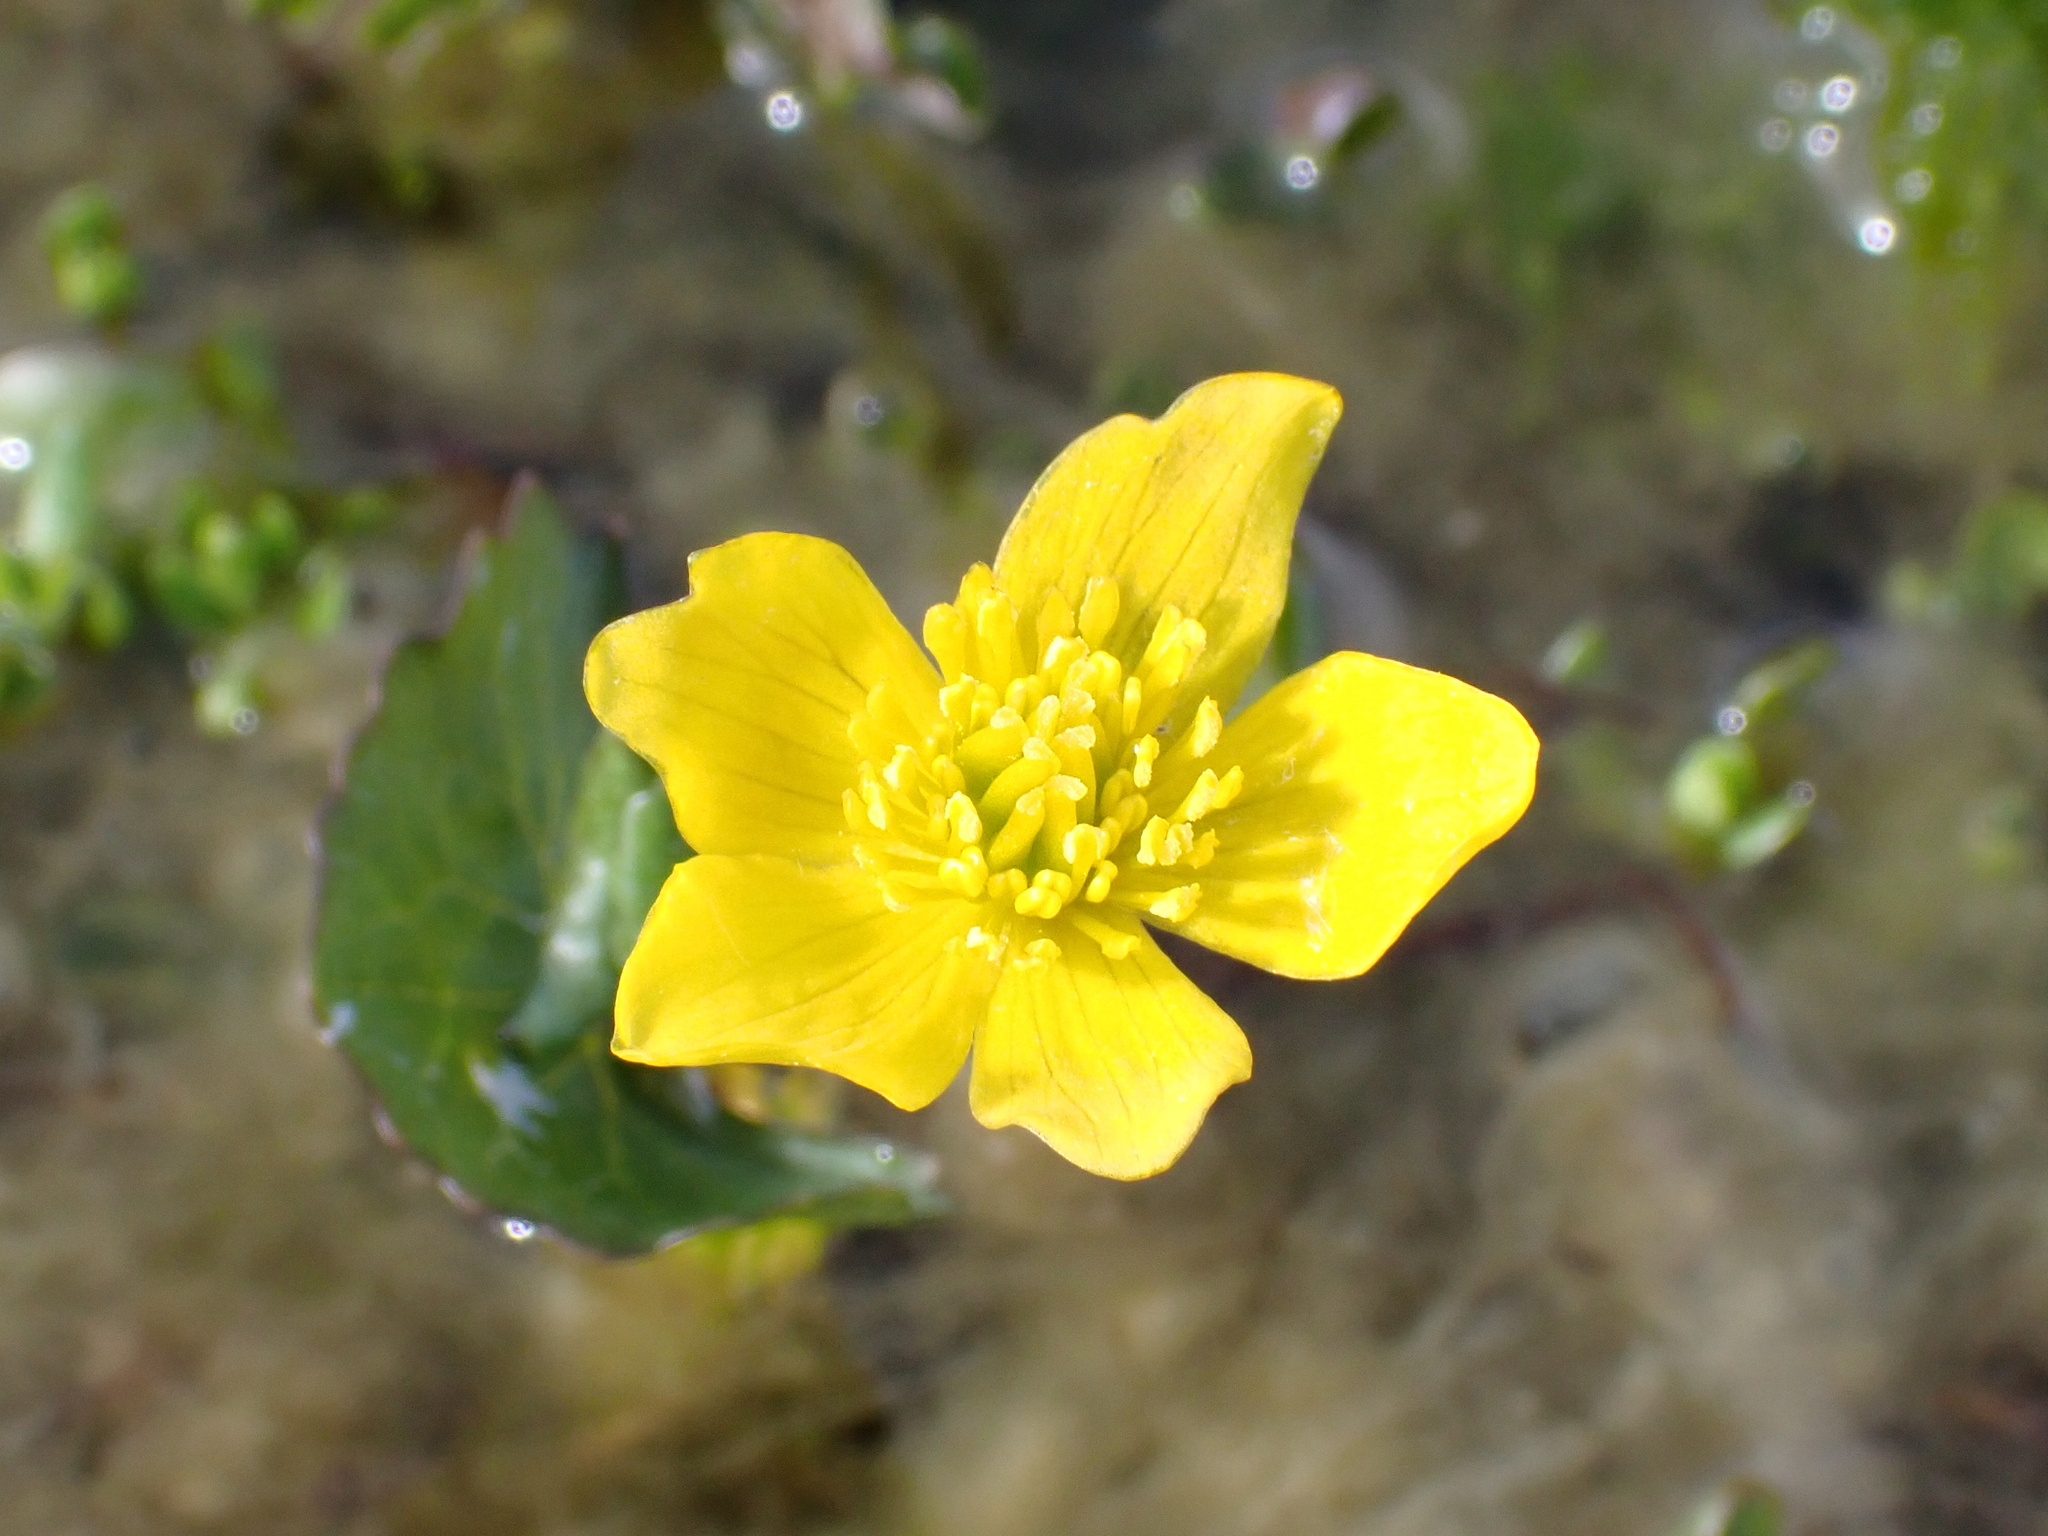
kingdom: Plantae
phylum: Tracheophyta
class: Magnoliopsida
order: Ranunculales
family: Ranunculaceae
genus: Caltha
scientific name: Caltha palustris
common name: Marsh marigold
